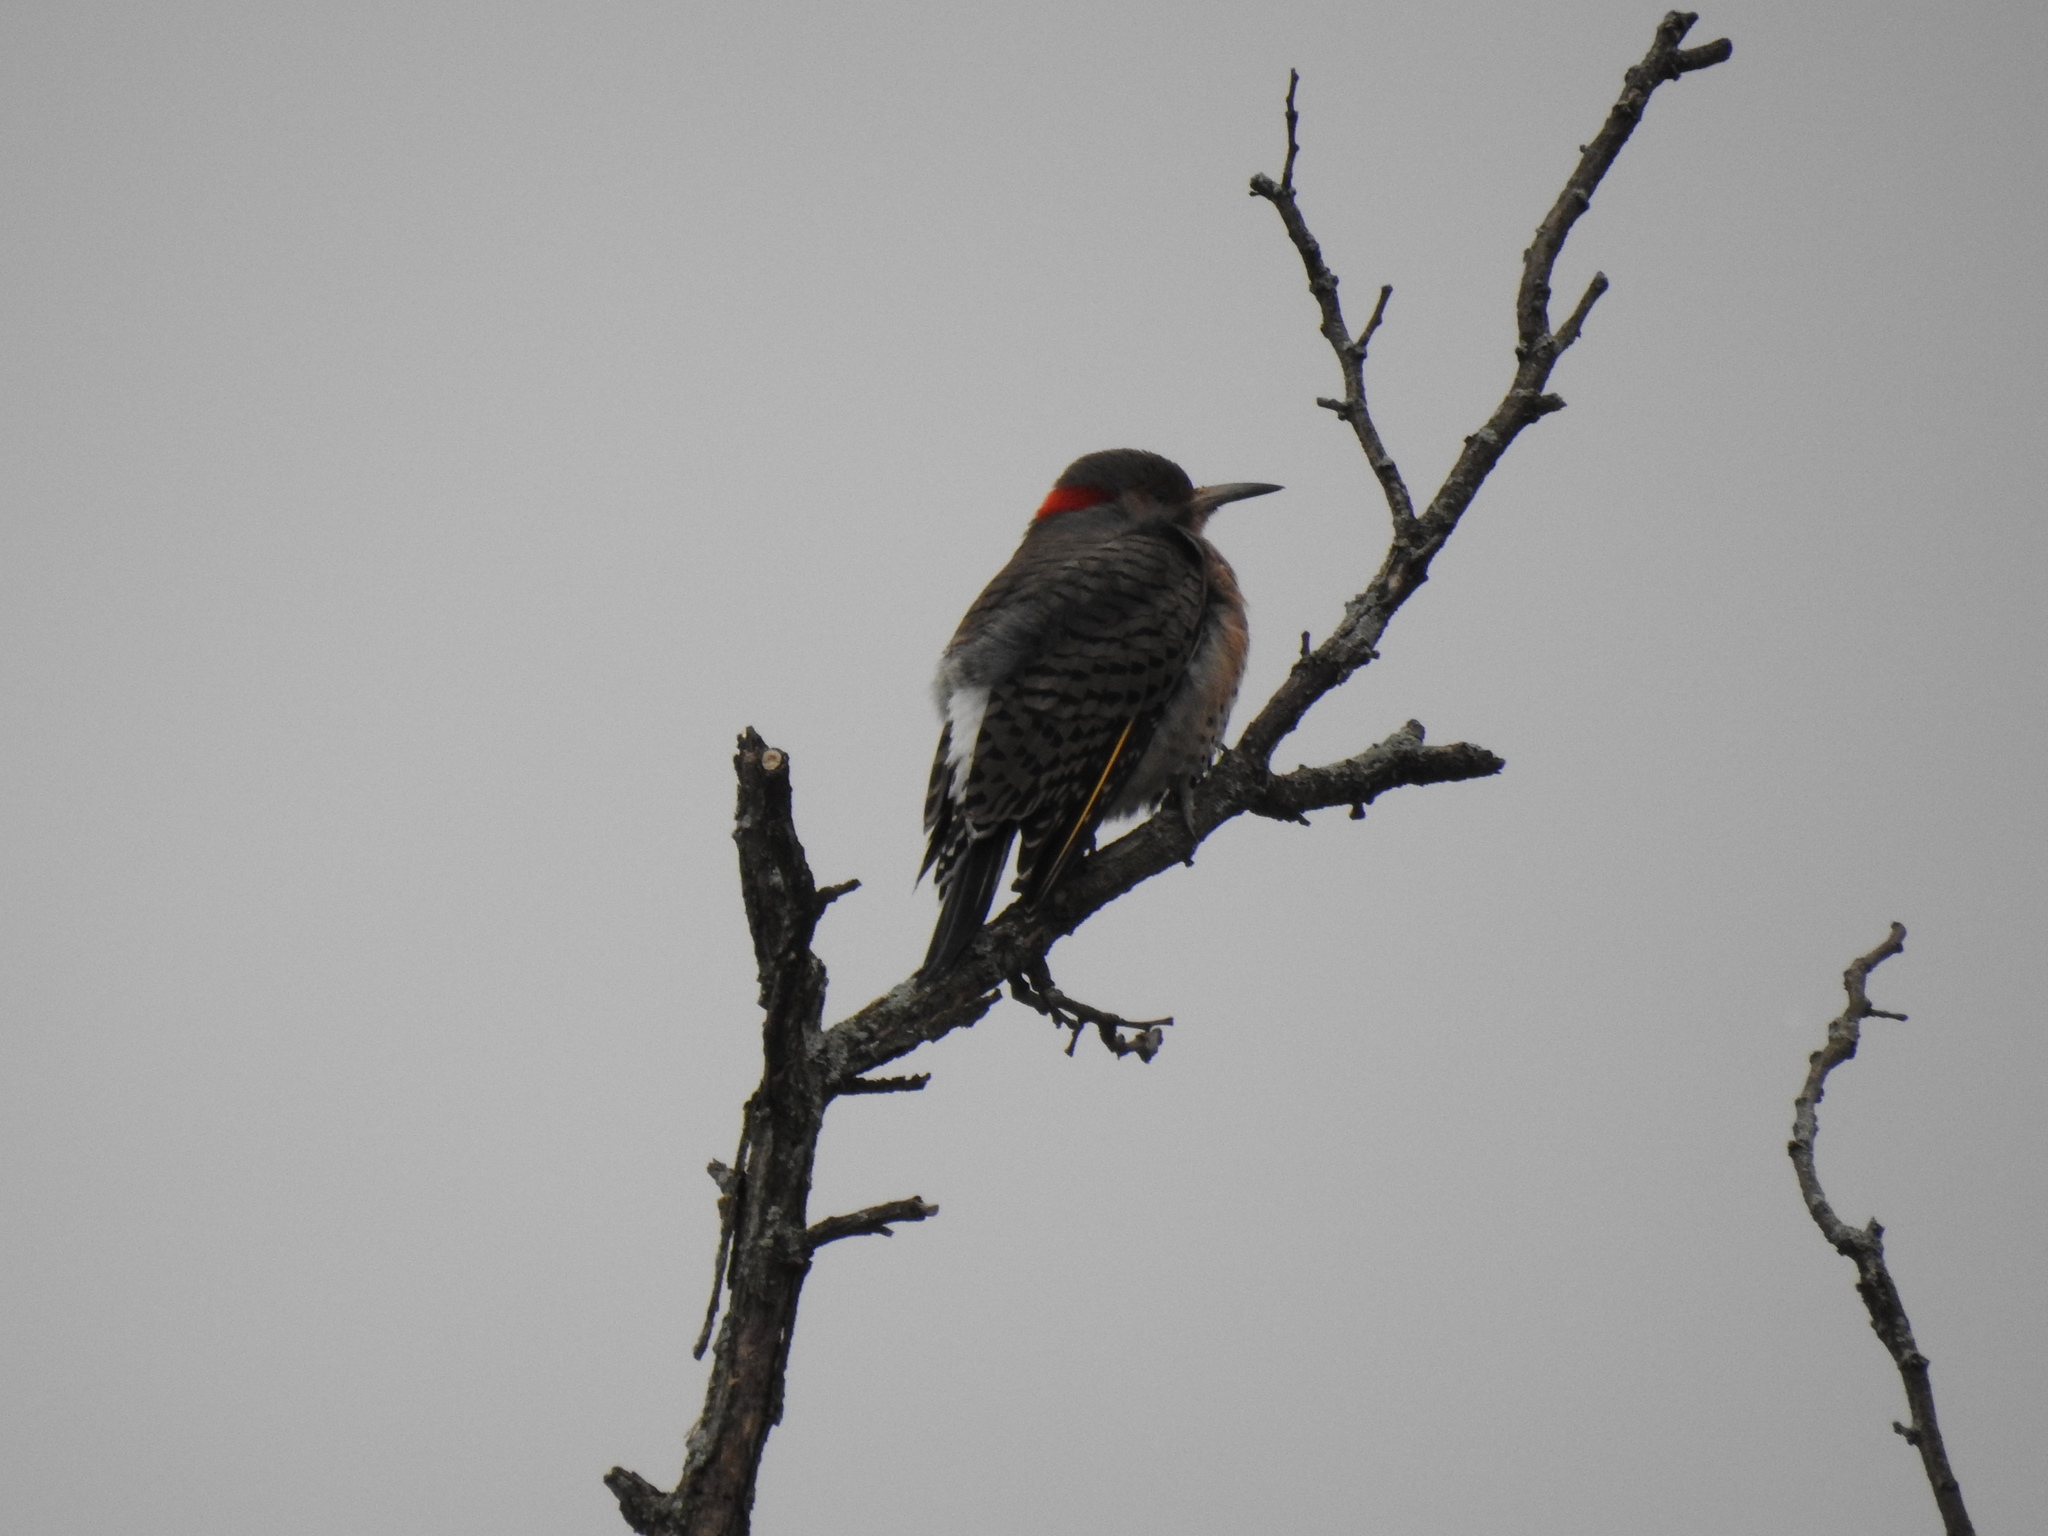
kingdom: Animalia
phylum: Chordata
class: Aves
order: Piciformes
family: Picidae
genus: Colaptes
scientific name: Colaptes auratus
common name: Northern flicker
